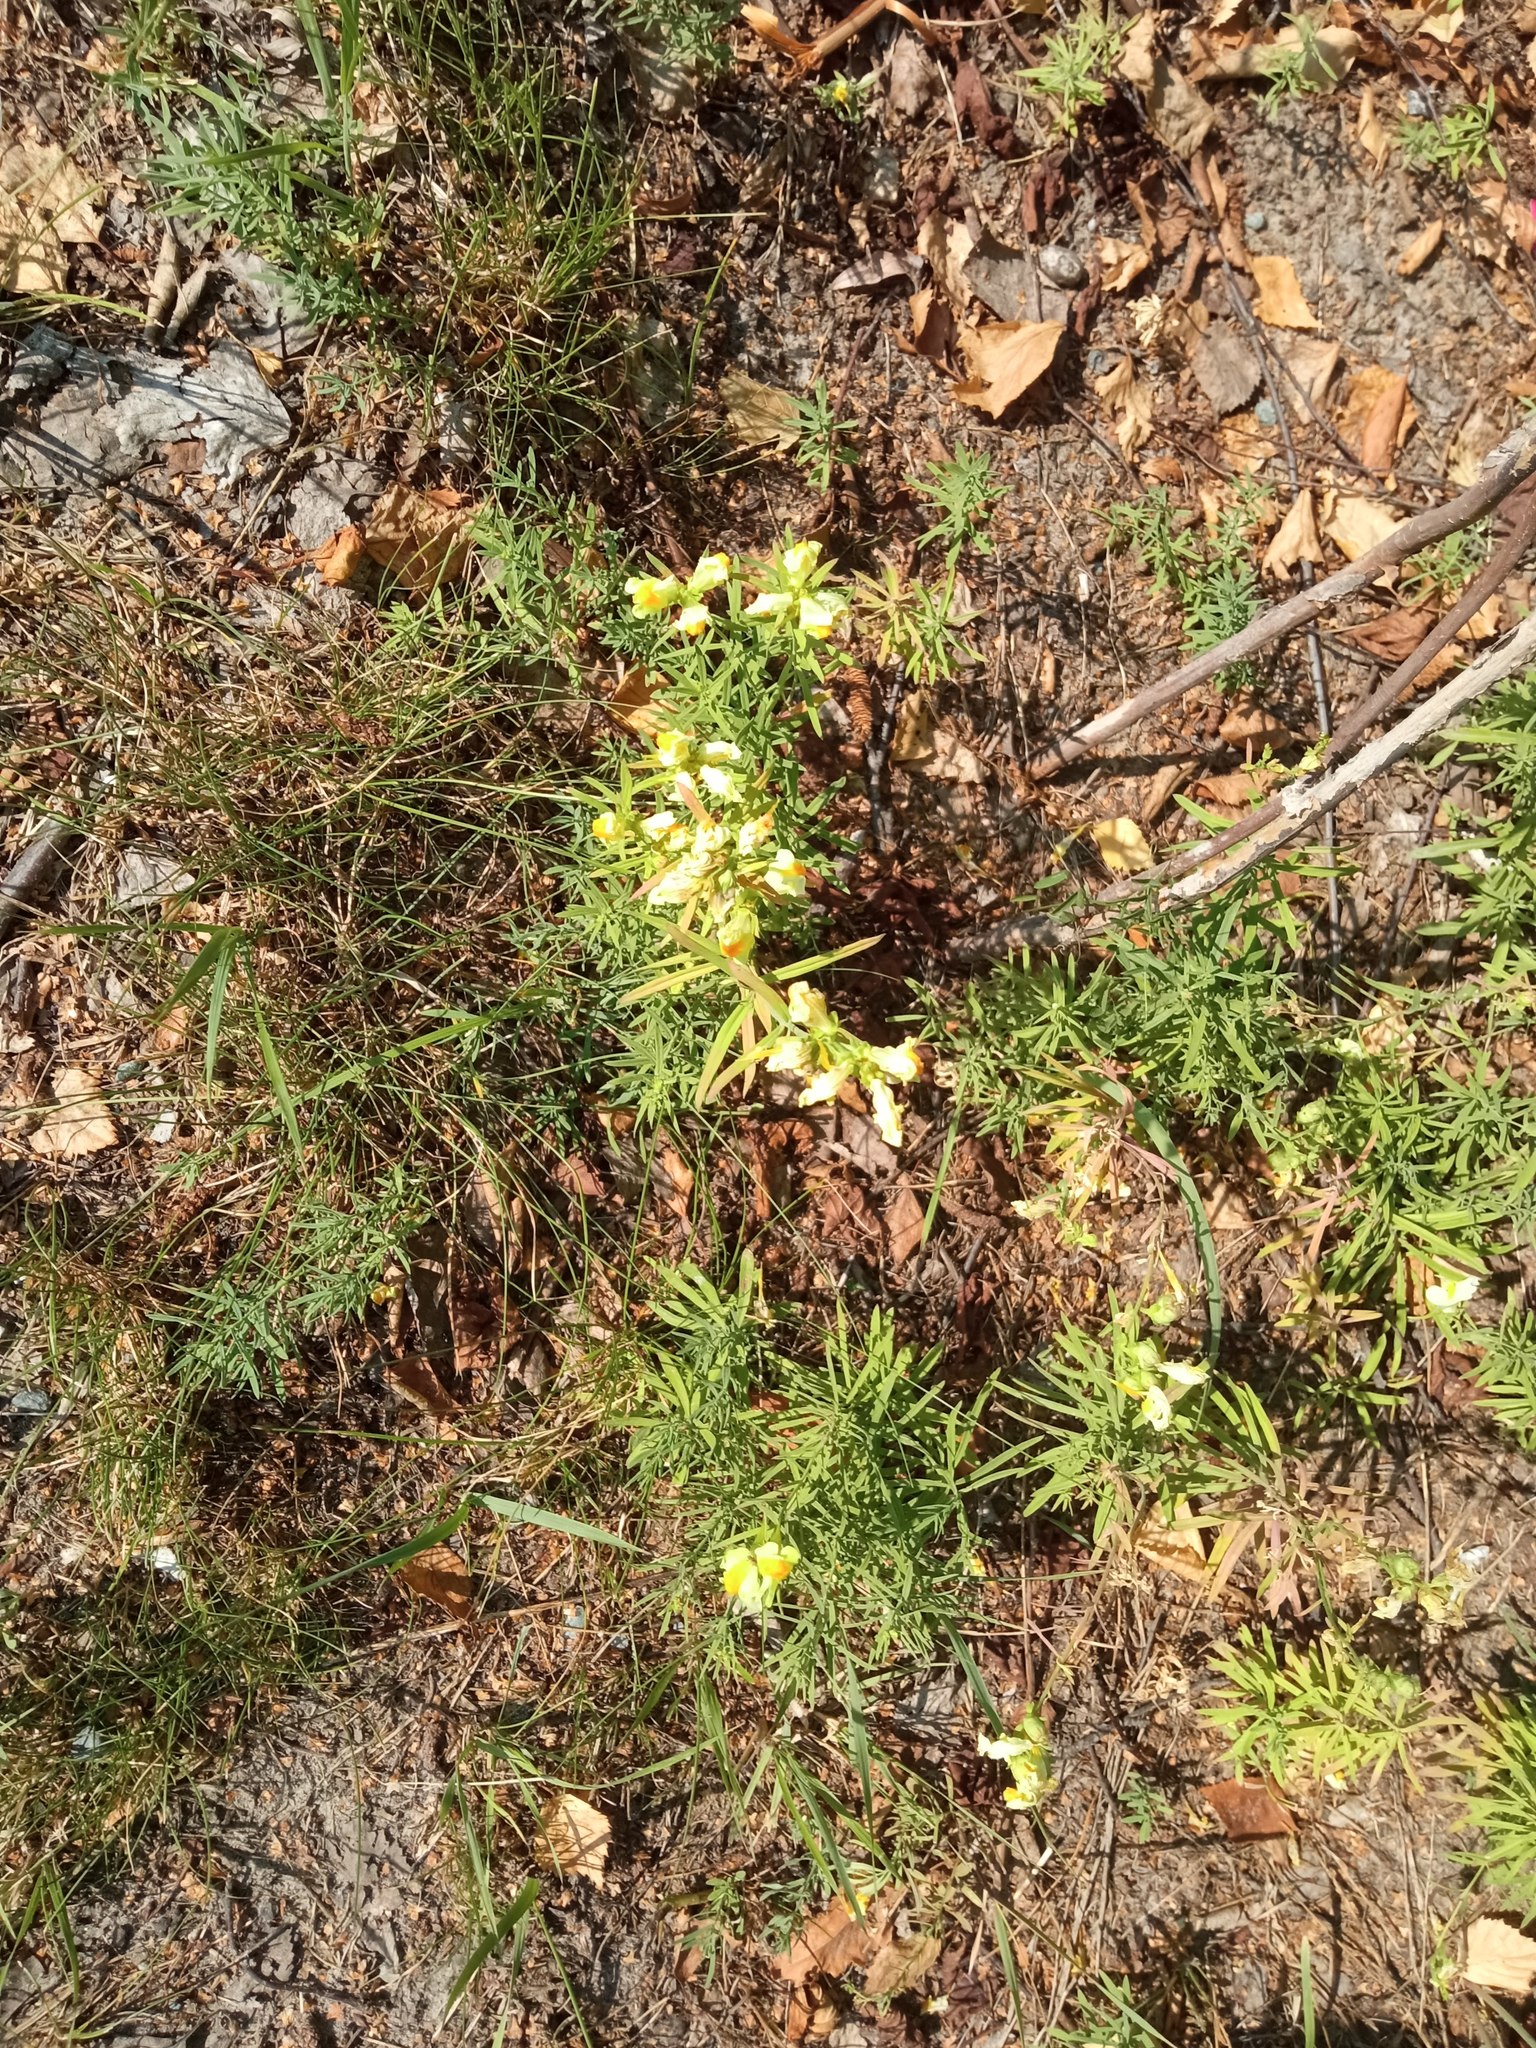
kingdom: Plantae
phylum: Tracheophyta
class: Magnoliopsida
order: Lamiales
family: Plantaginaceae
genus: Linaria
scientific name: Linaria vulgaris
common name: Butter and eggs
